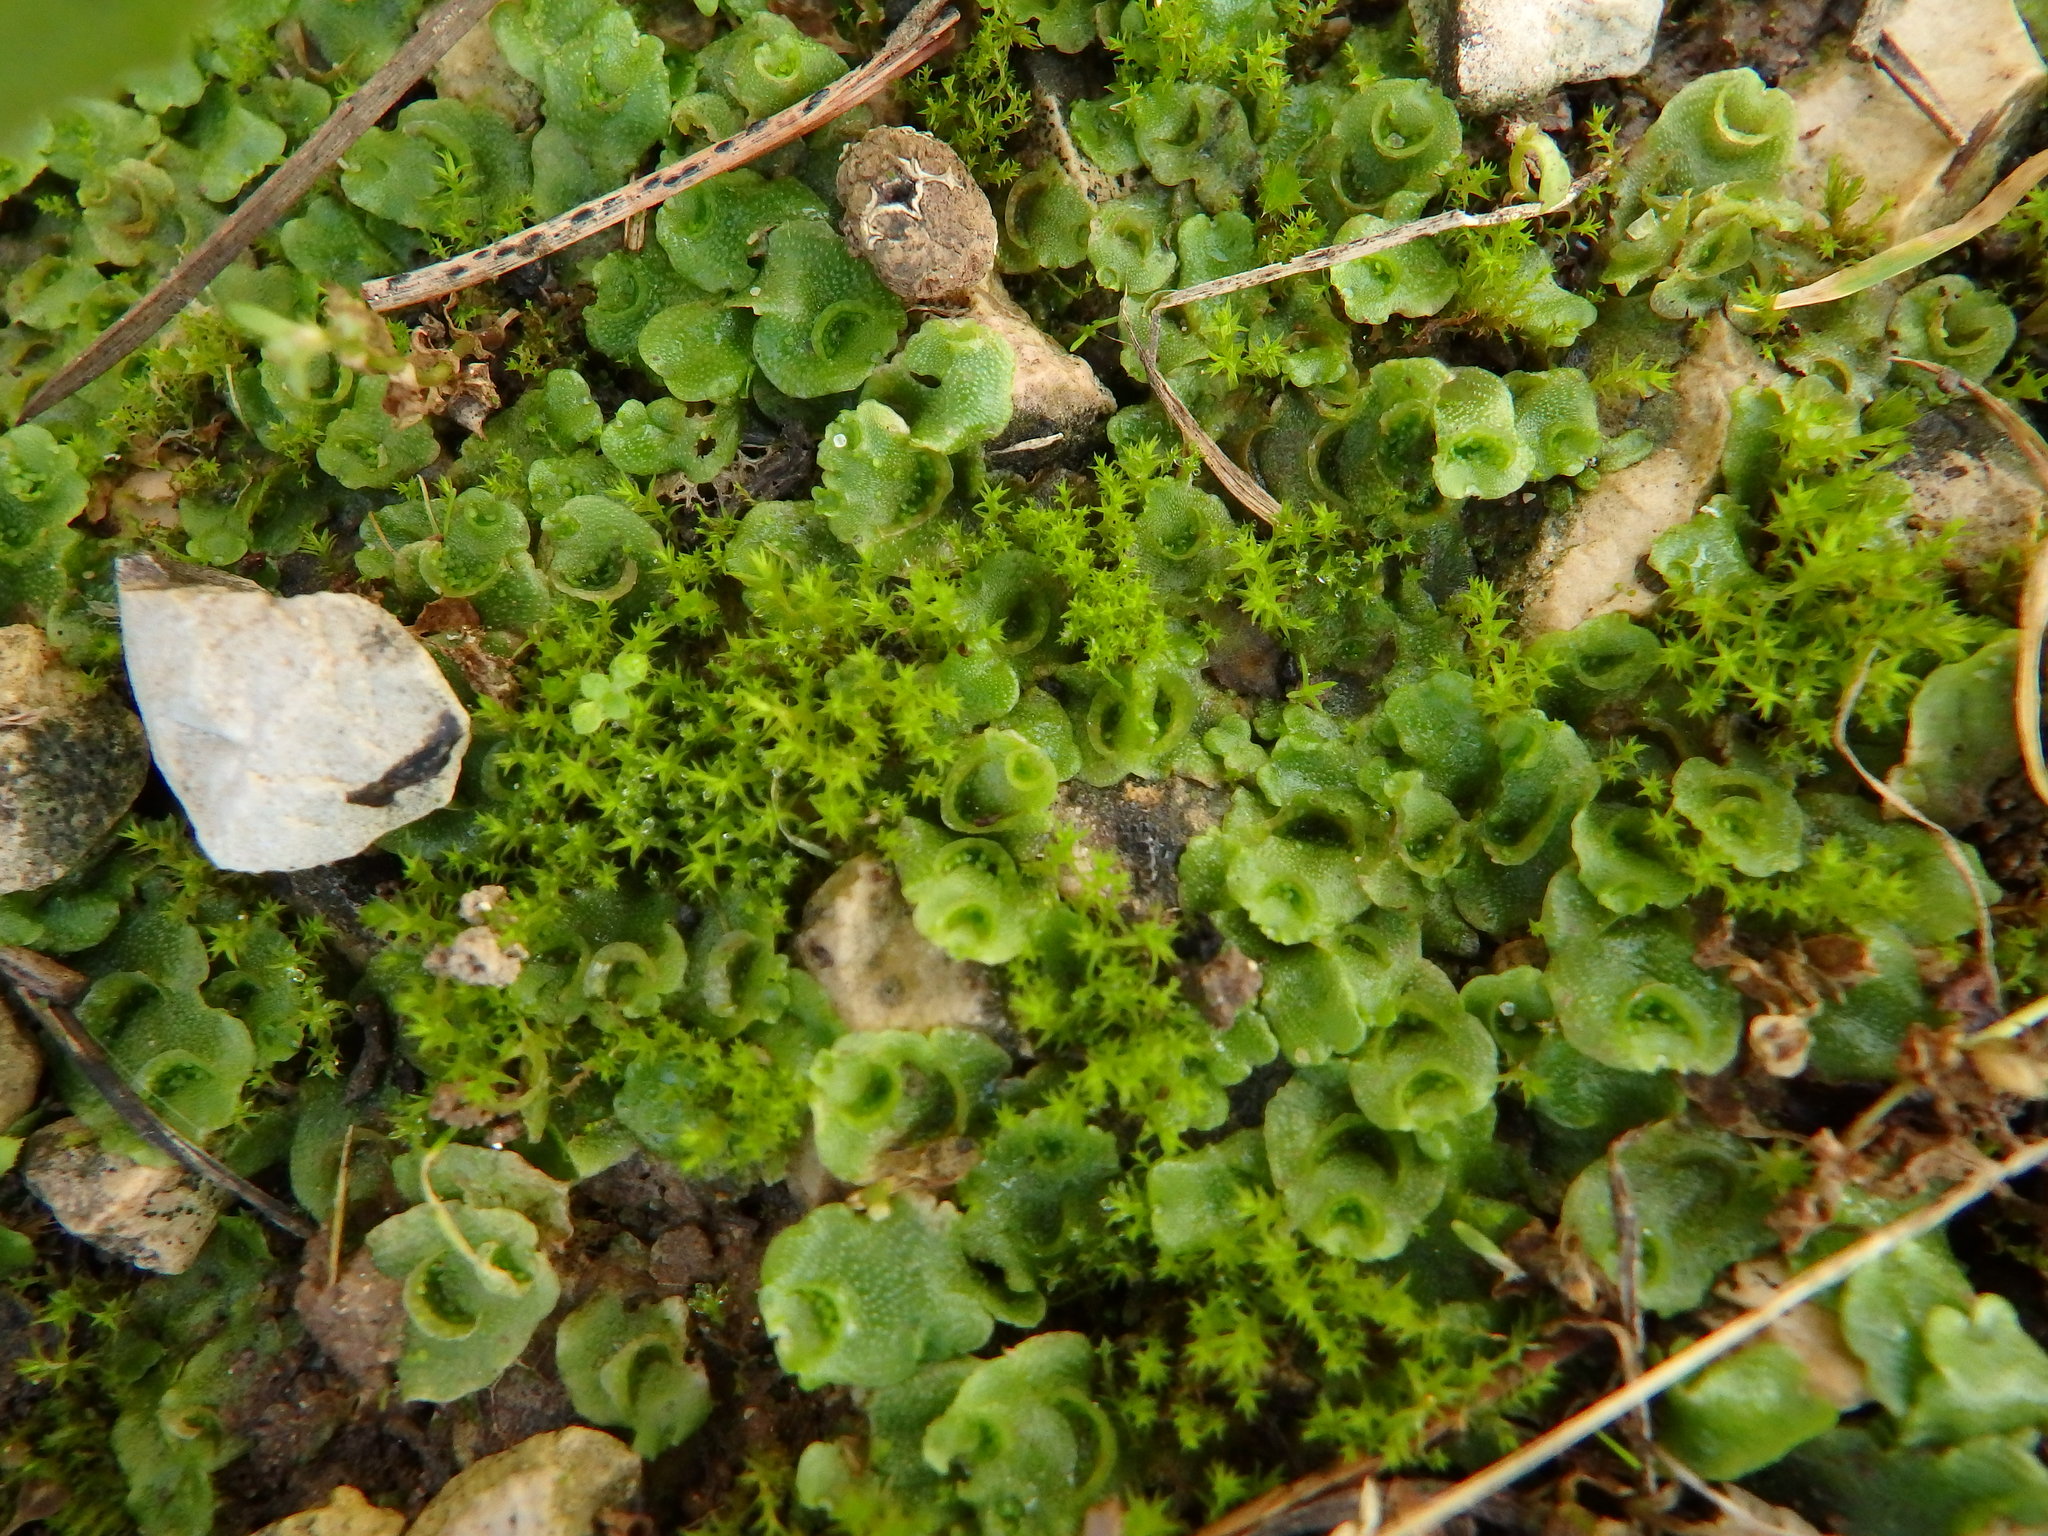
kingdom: Plantae
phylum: Marchantiophyta
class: Marchantiopsida
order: Lunulariales
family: Lunulariaceae
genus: Lunularia
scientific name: Lunularia cruciata
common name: Crescent-cup liverwort
